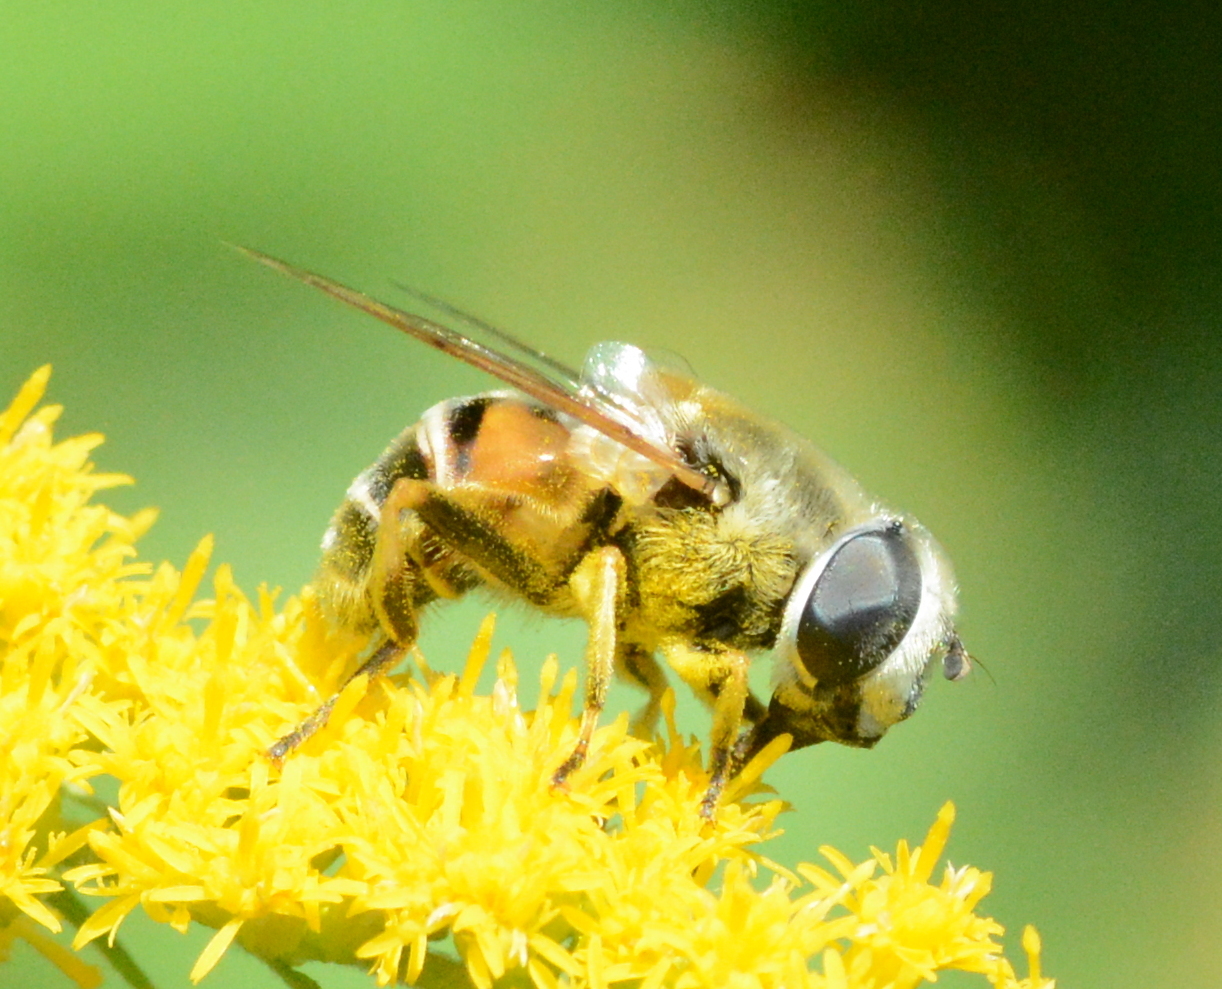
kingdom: Animalia
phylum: Arthropoda
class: Insecta
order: Diptera
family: Syrphidae
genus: Eristalis
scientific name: Eristalis stipator
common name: Yellow-shouldered drone fly
